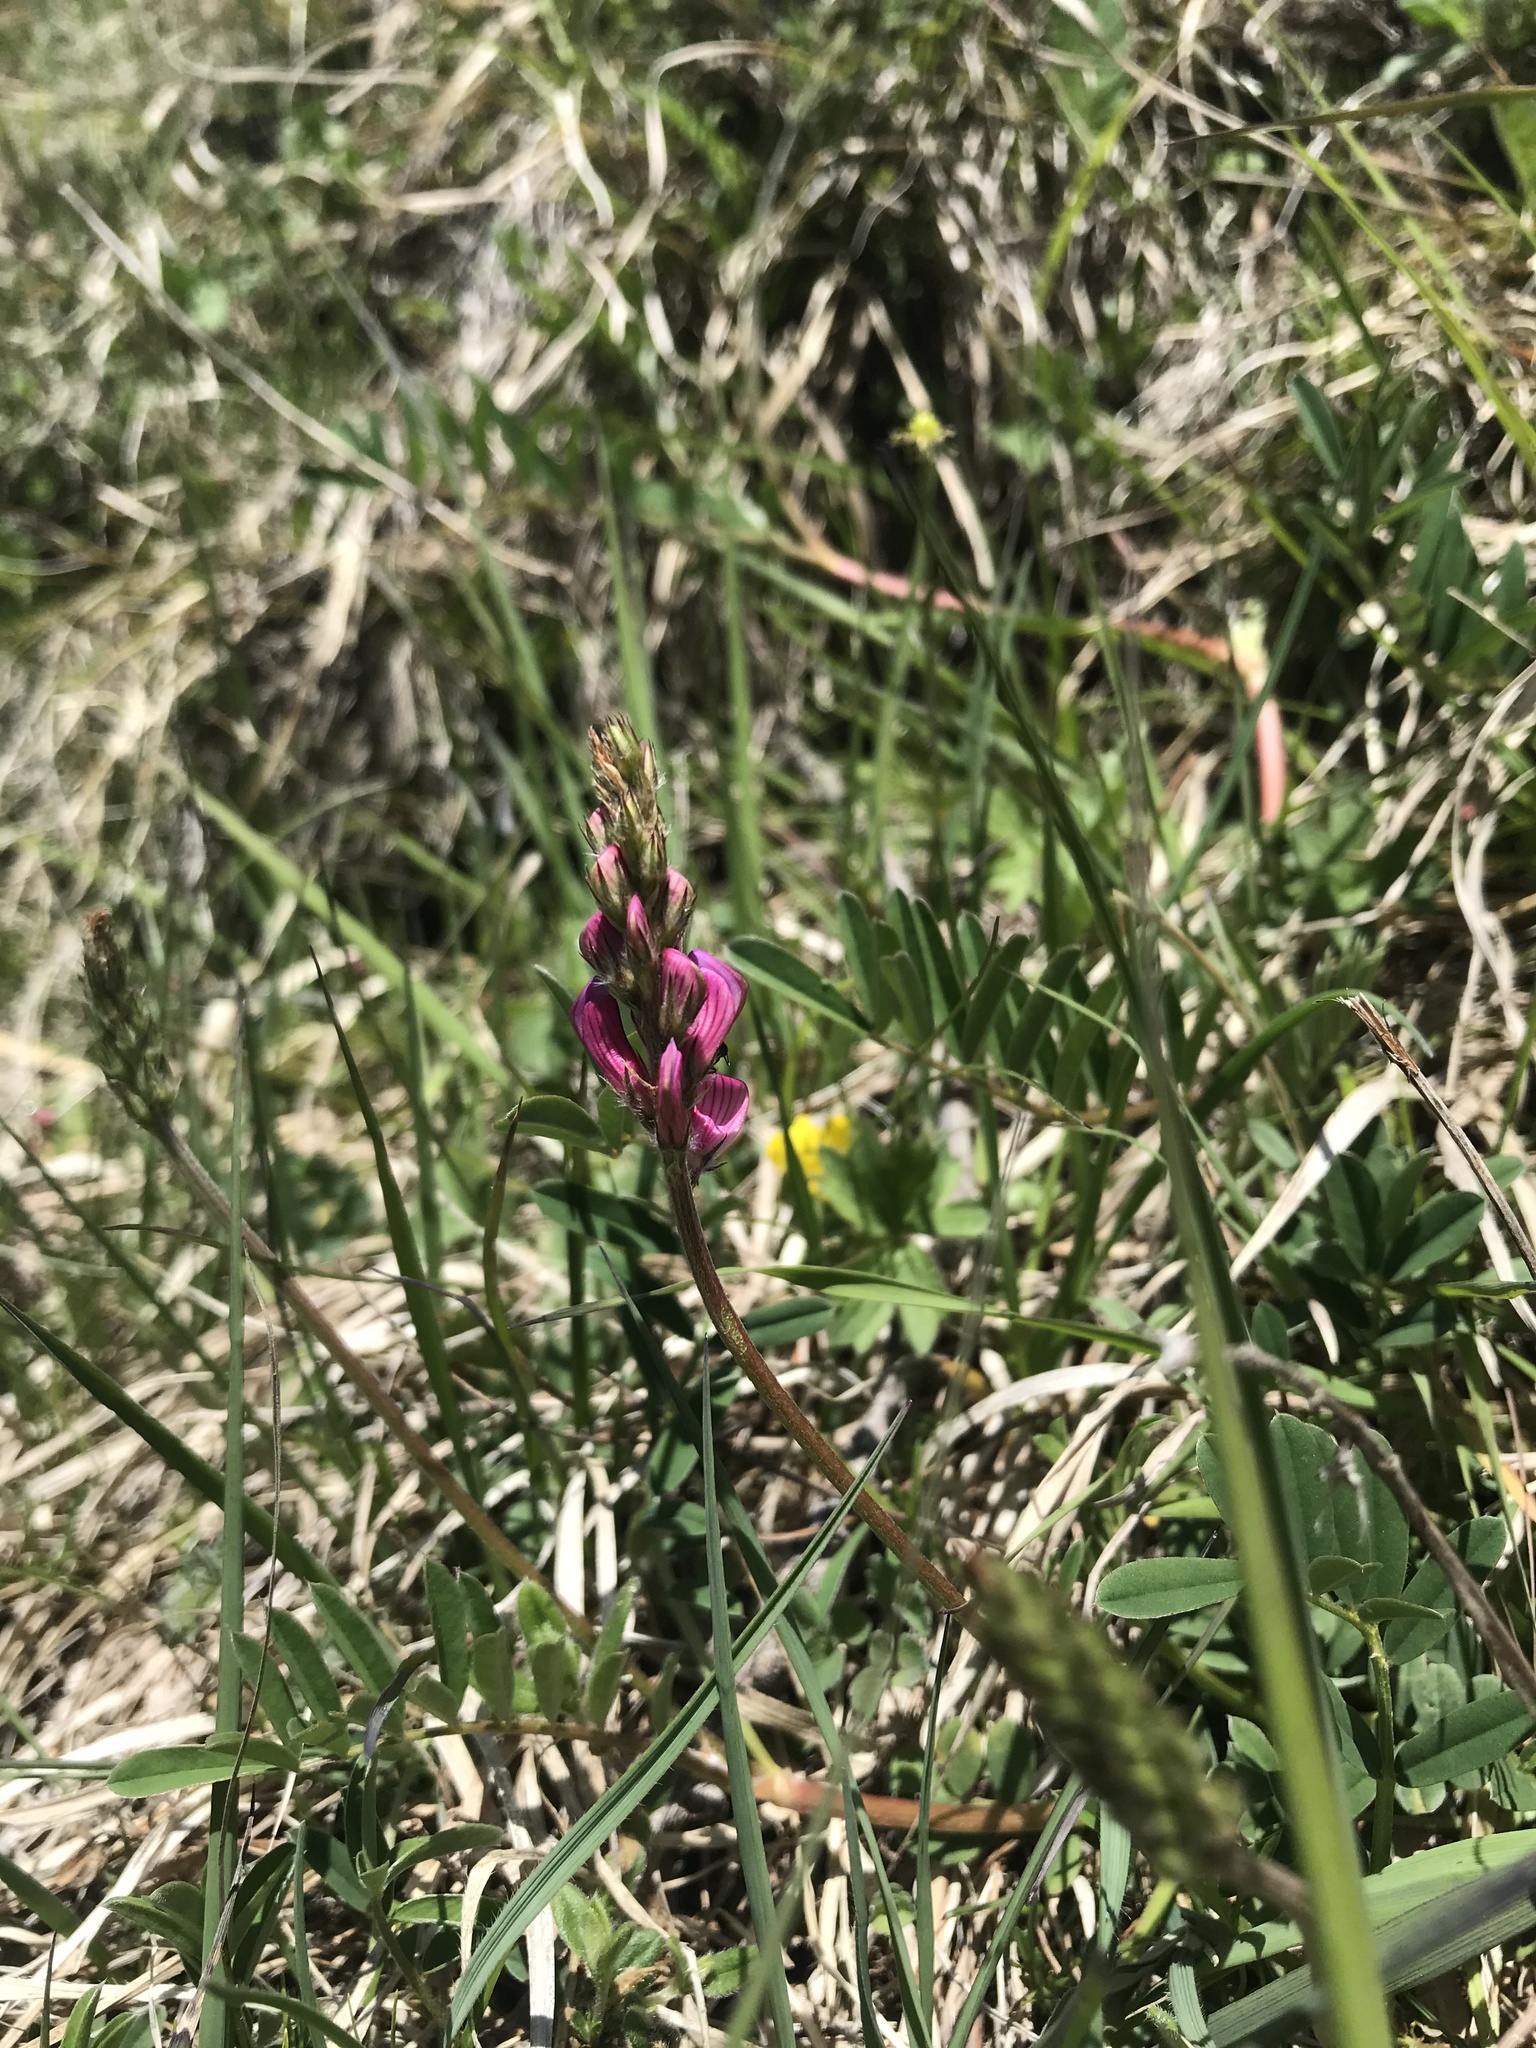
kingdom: Plantae
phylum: Tracheophyta
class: Magnoliopsida
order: Fabales
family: Fabaceae
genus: Onobrychis
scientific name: Onobrychis viciifolia
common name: Sainfoin
